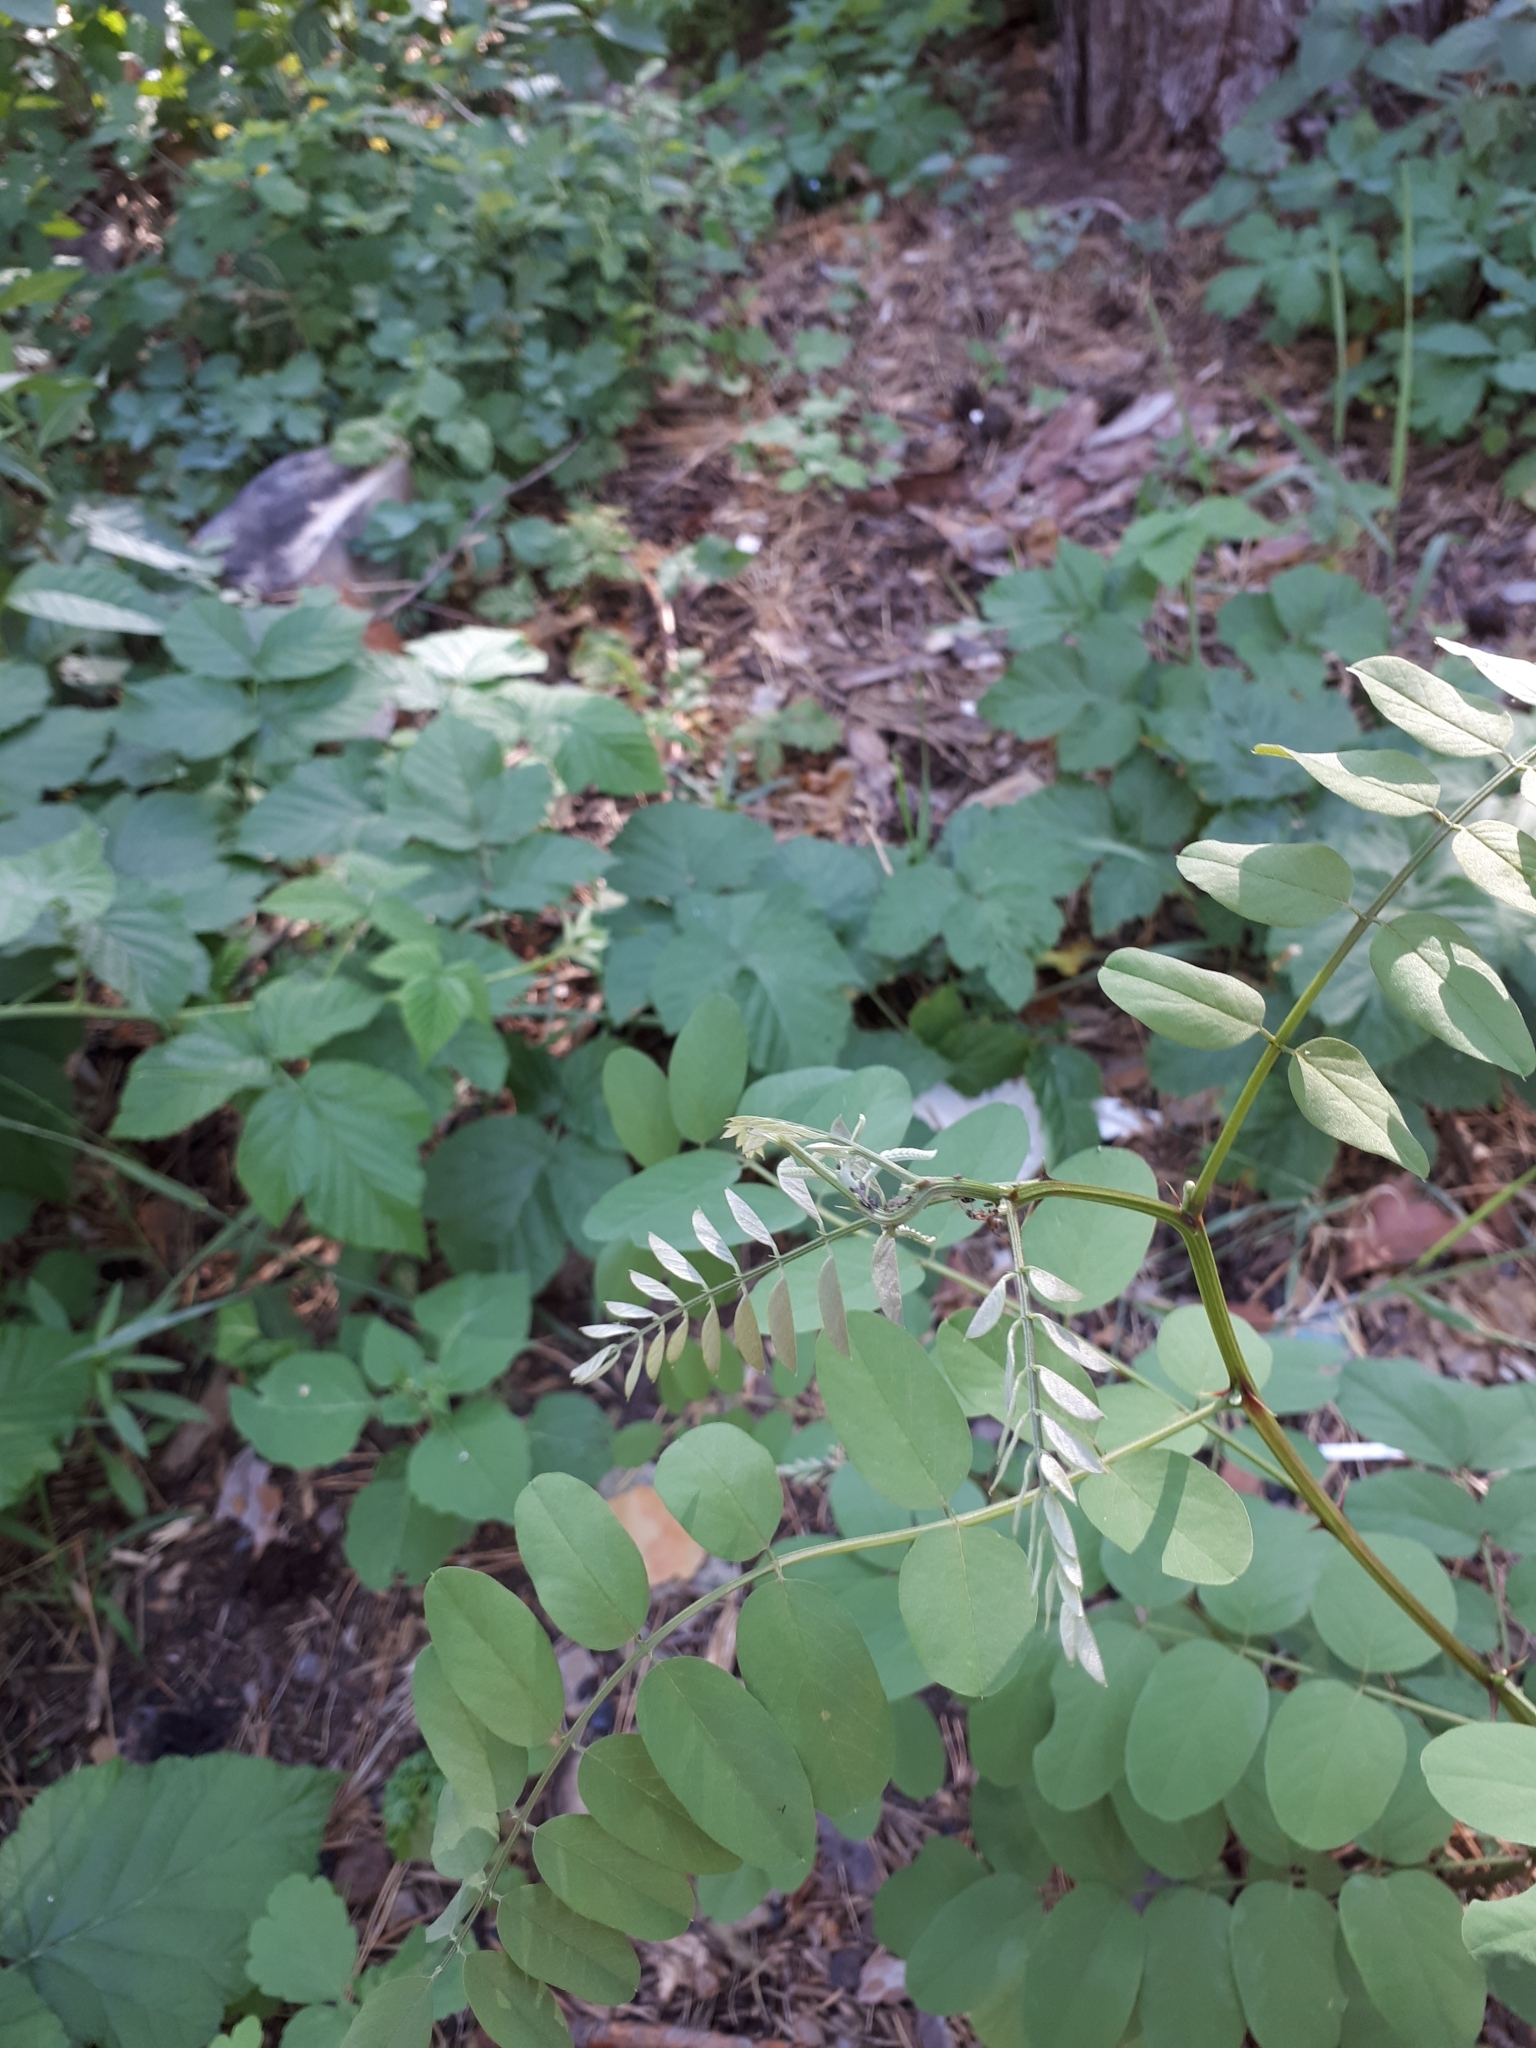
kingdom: Plantae
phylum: Tracheophyta
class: Magnoliopsida
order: Fabales
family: Fabaceae
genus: Robinia
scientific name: Robinia pseudoacacia
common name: Black locust
